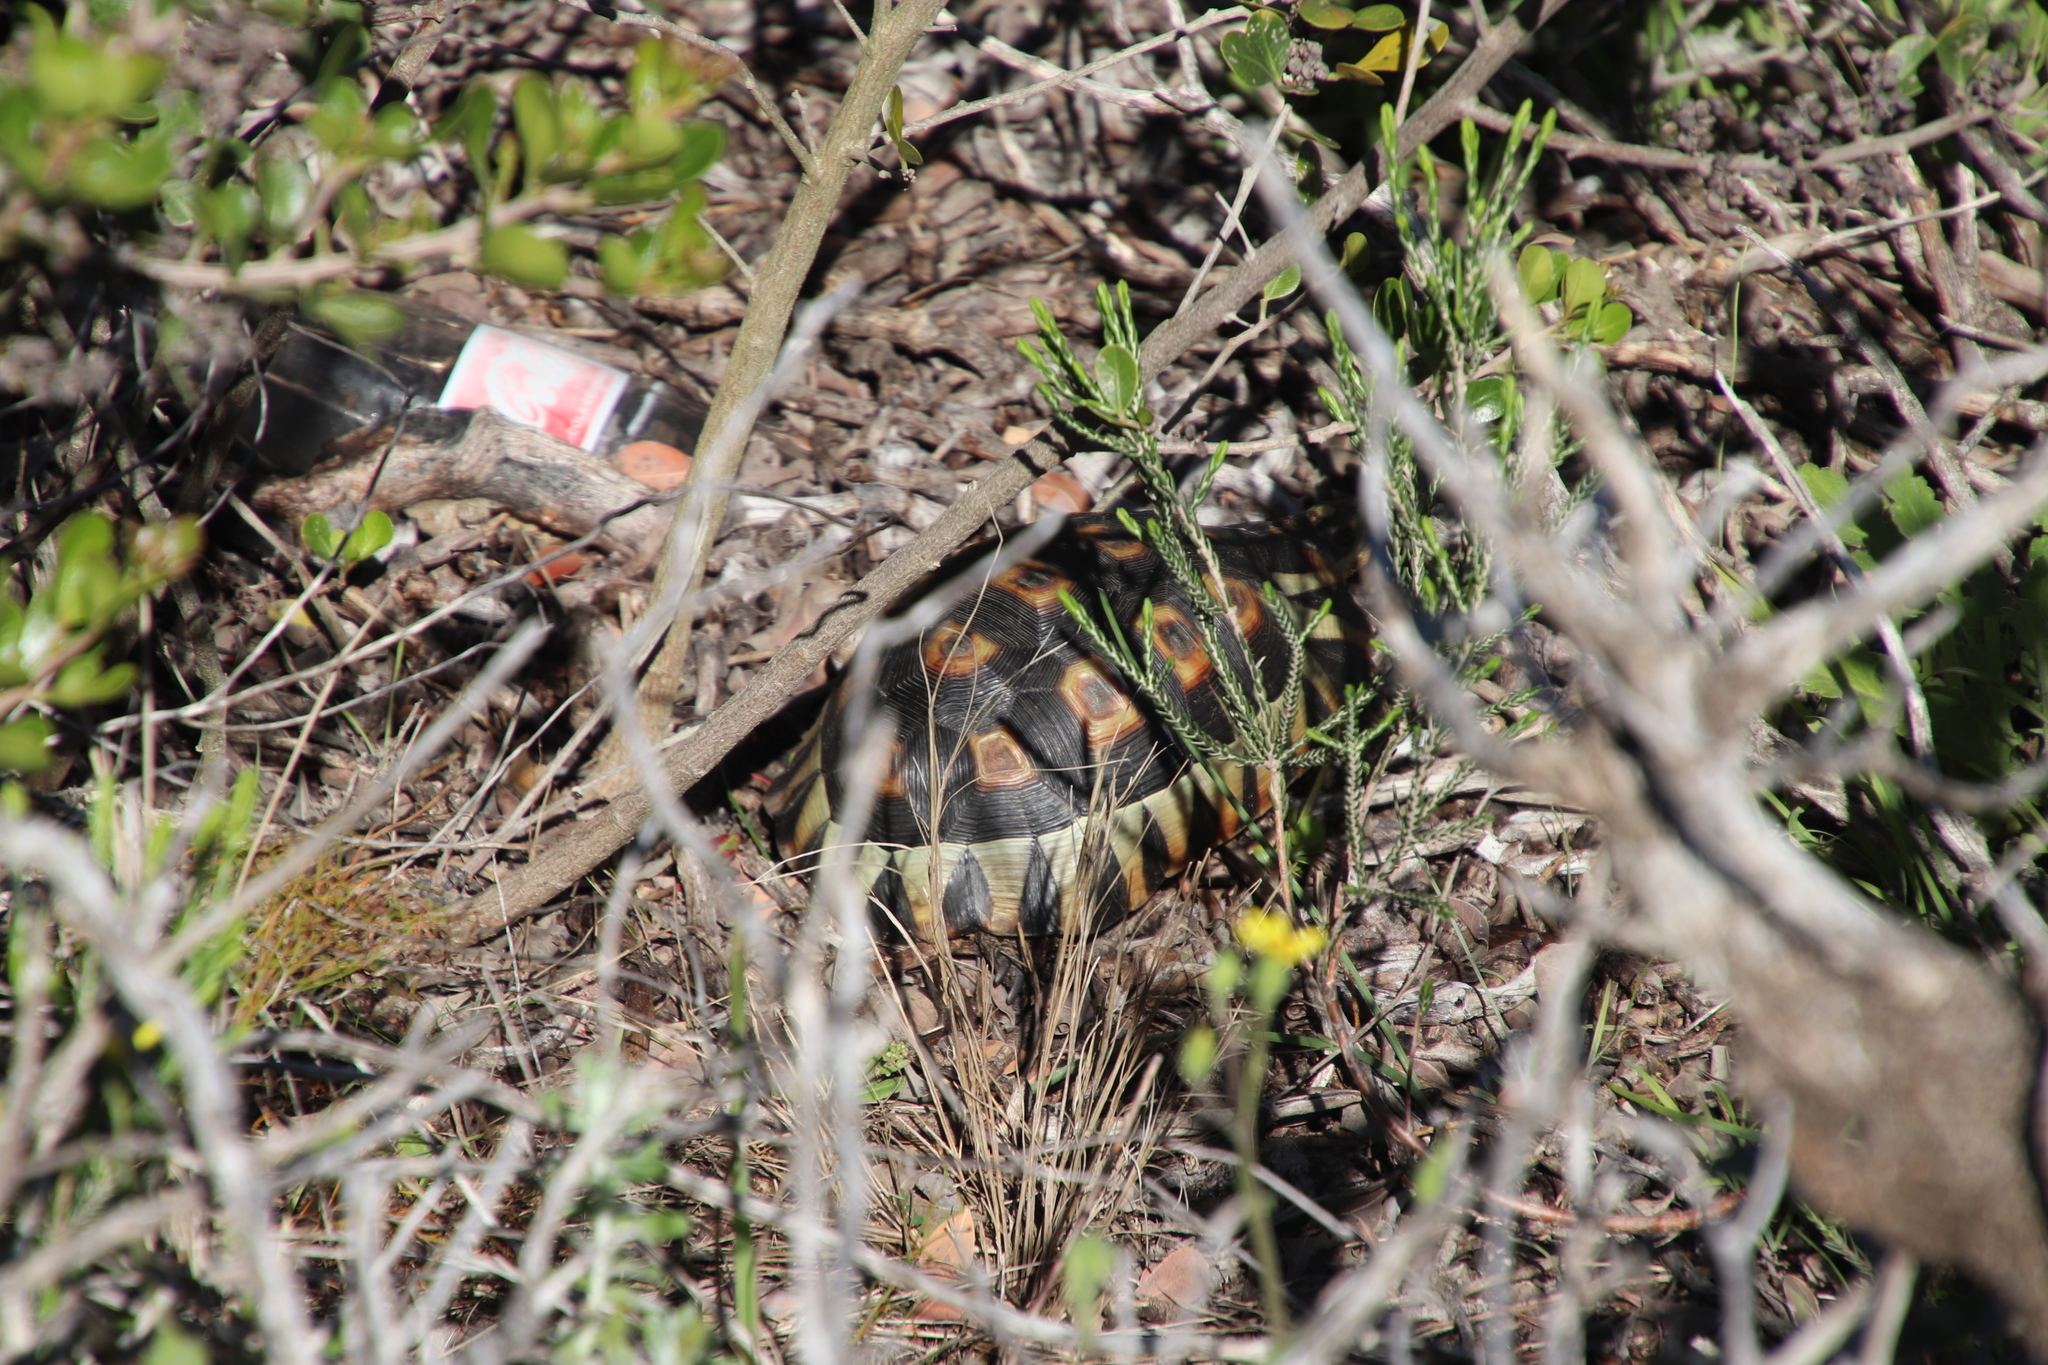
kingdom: Animalia
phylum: Chordata
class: Testudines
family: Testudinidae
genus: Chersina
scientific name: Chersina angulata
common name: South african bowsprit tortoise
